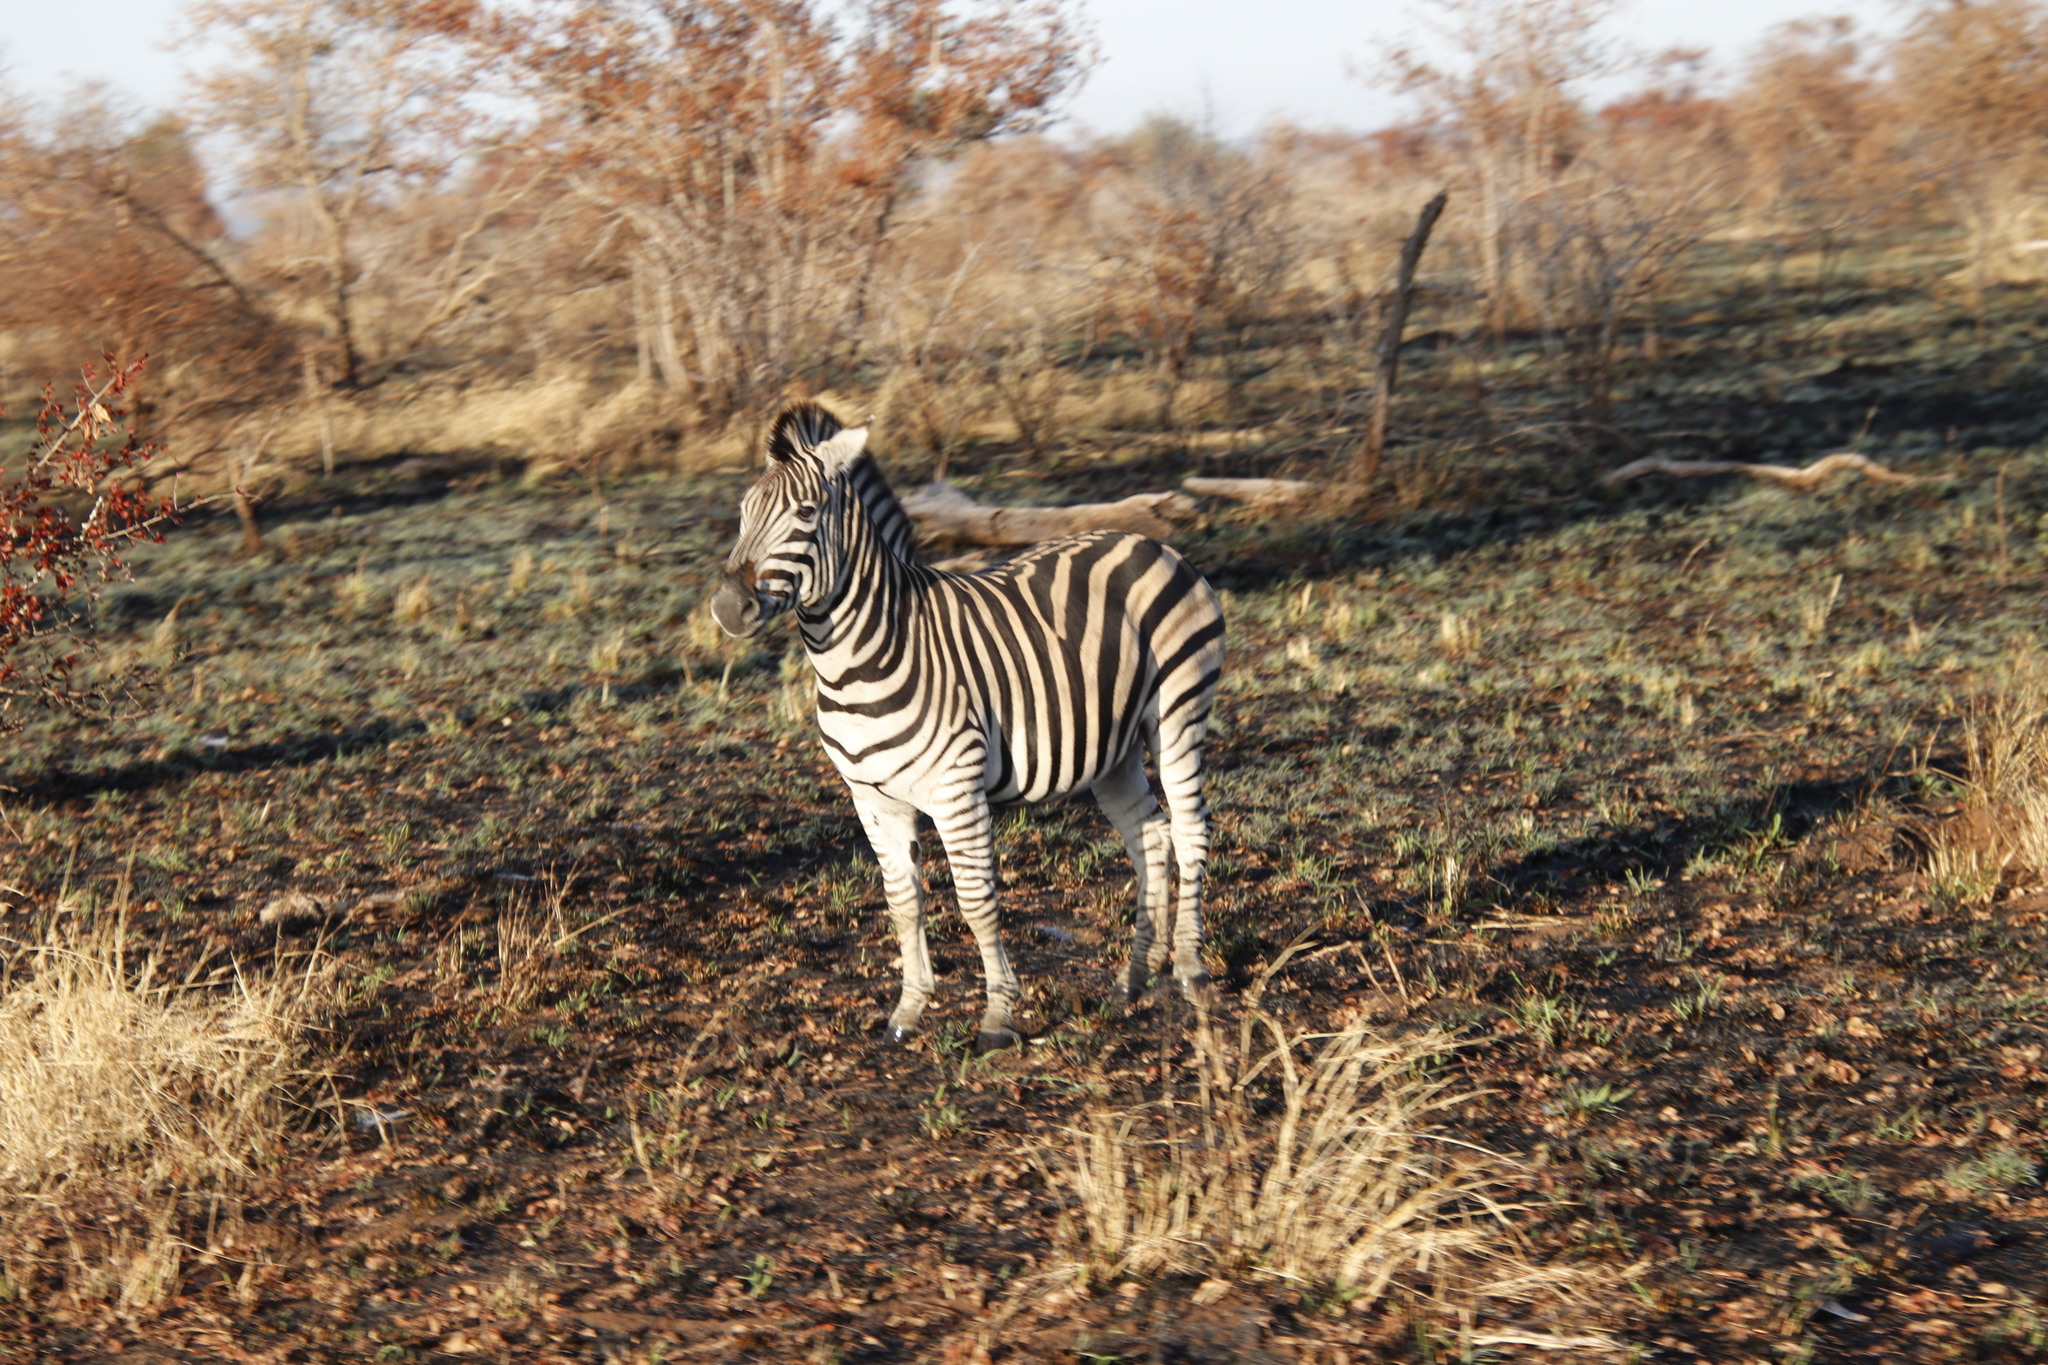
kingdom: Animalia
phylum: Chordata
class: Mammalia
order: Perissodactyla
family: Equidae
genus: Equus
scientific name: Equus quagga
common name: Plains zebra
